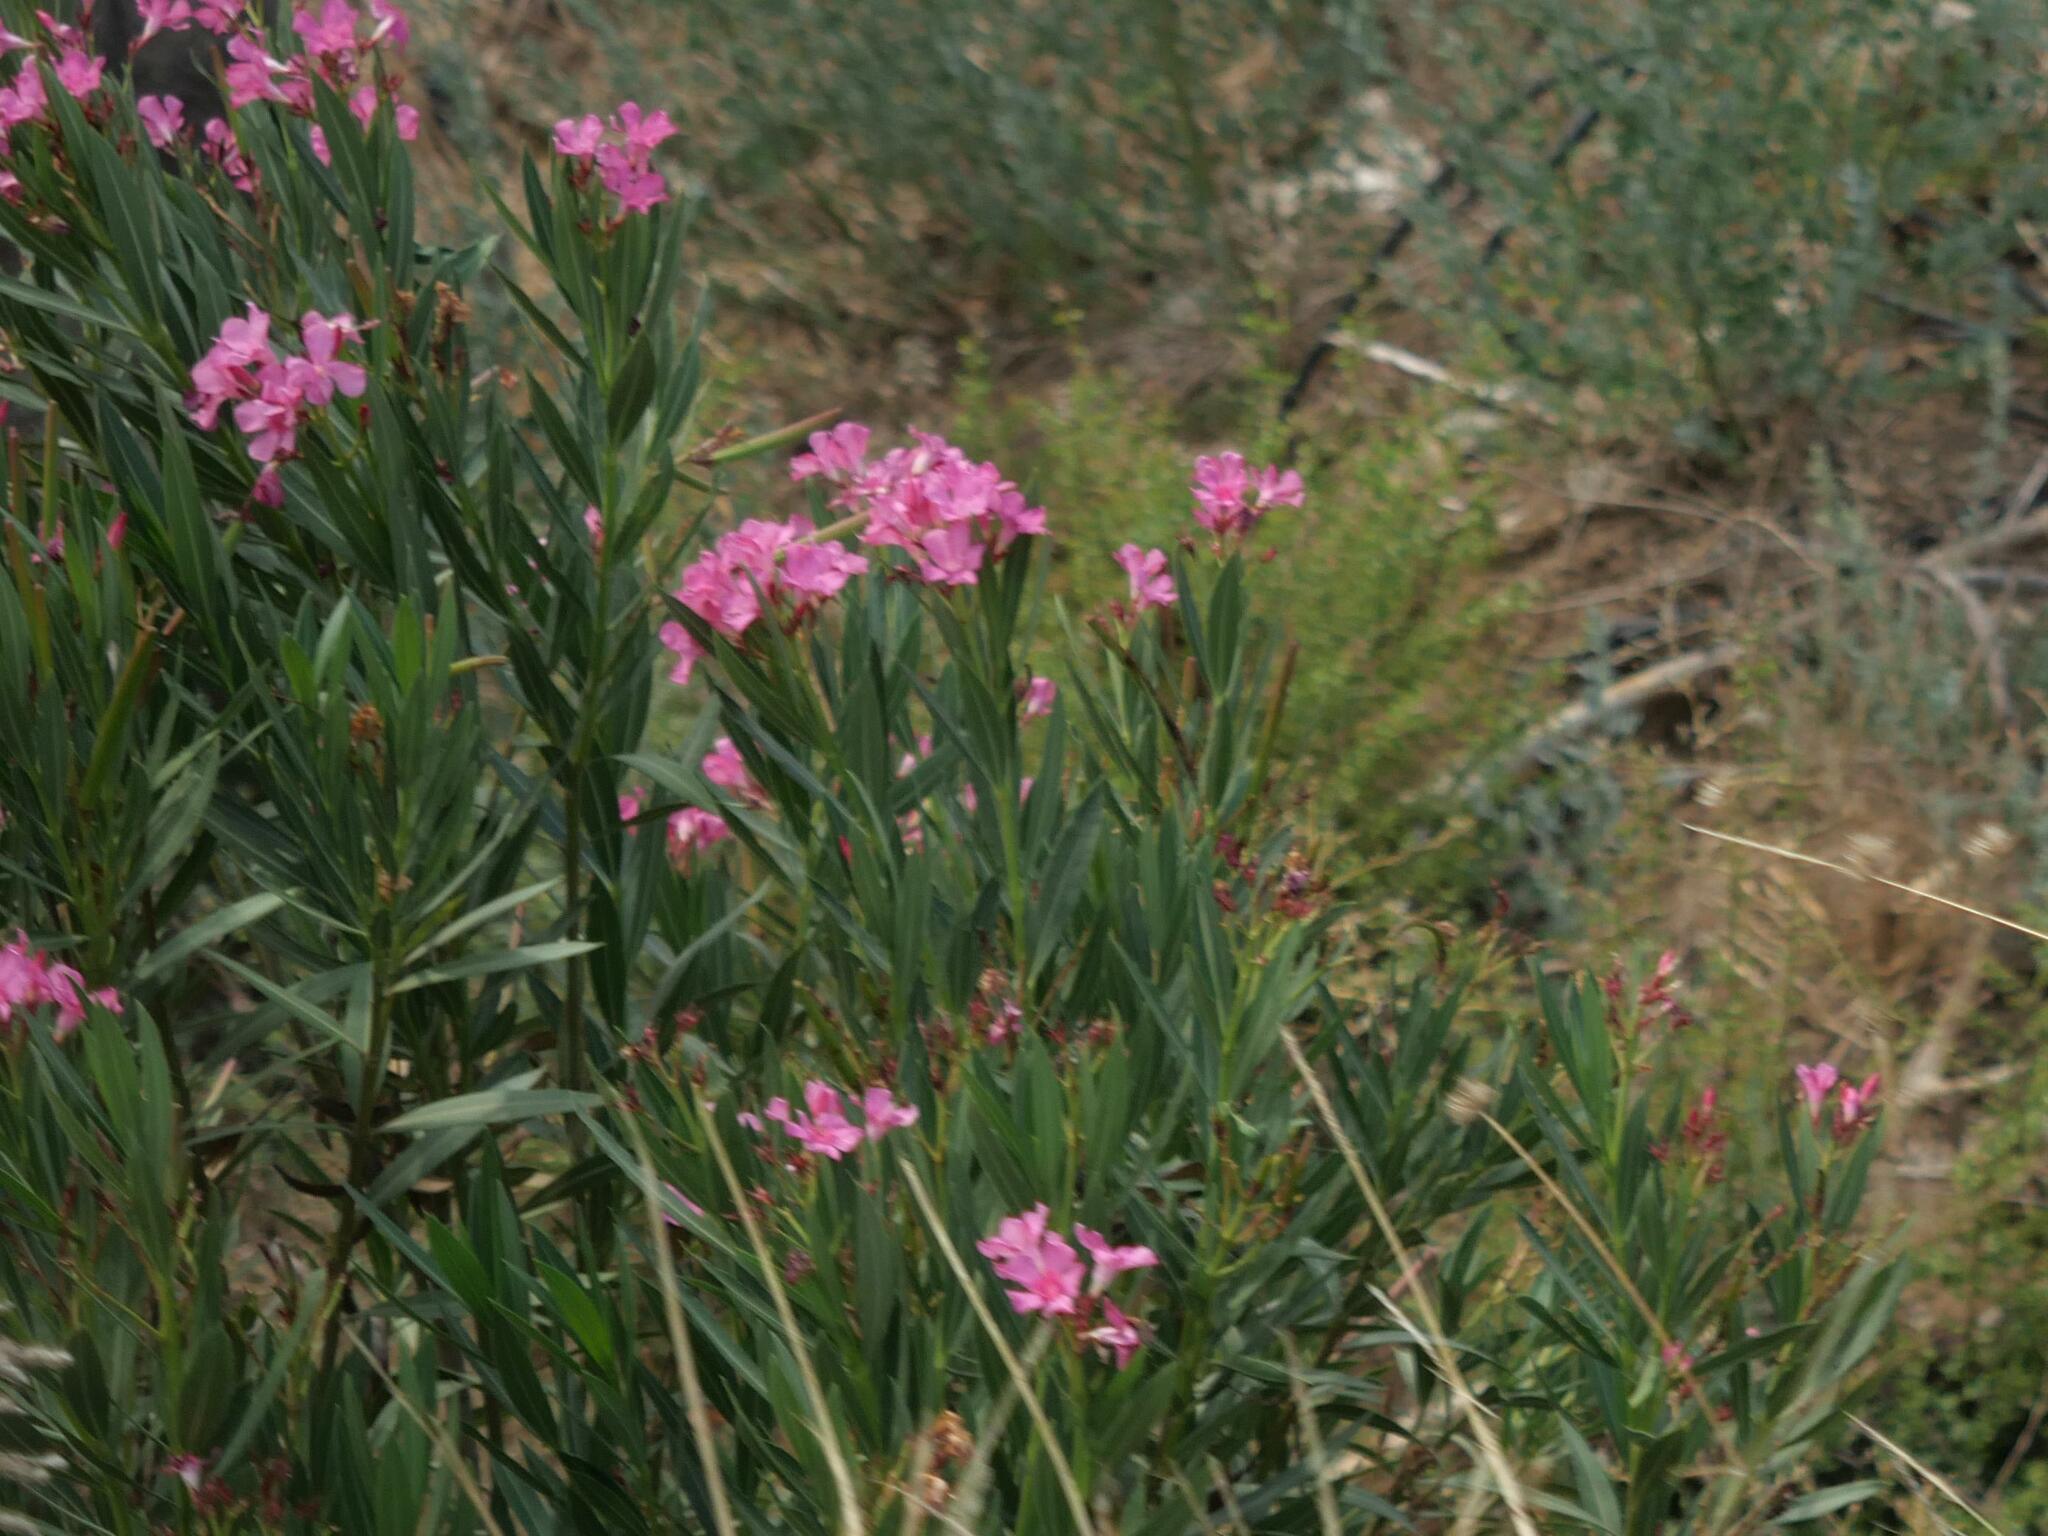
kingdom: Plantae
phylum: Tracheophyta
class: Magnoliopsida
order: Gentianales
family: Apocynaceae
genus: Nerium
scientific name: Nerium oleander
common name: Oleander
